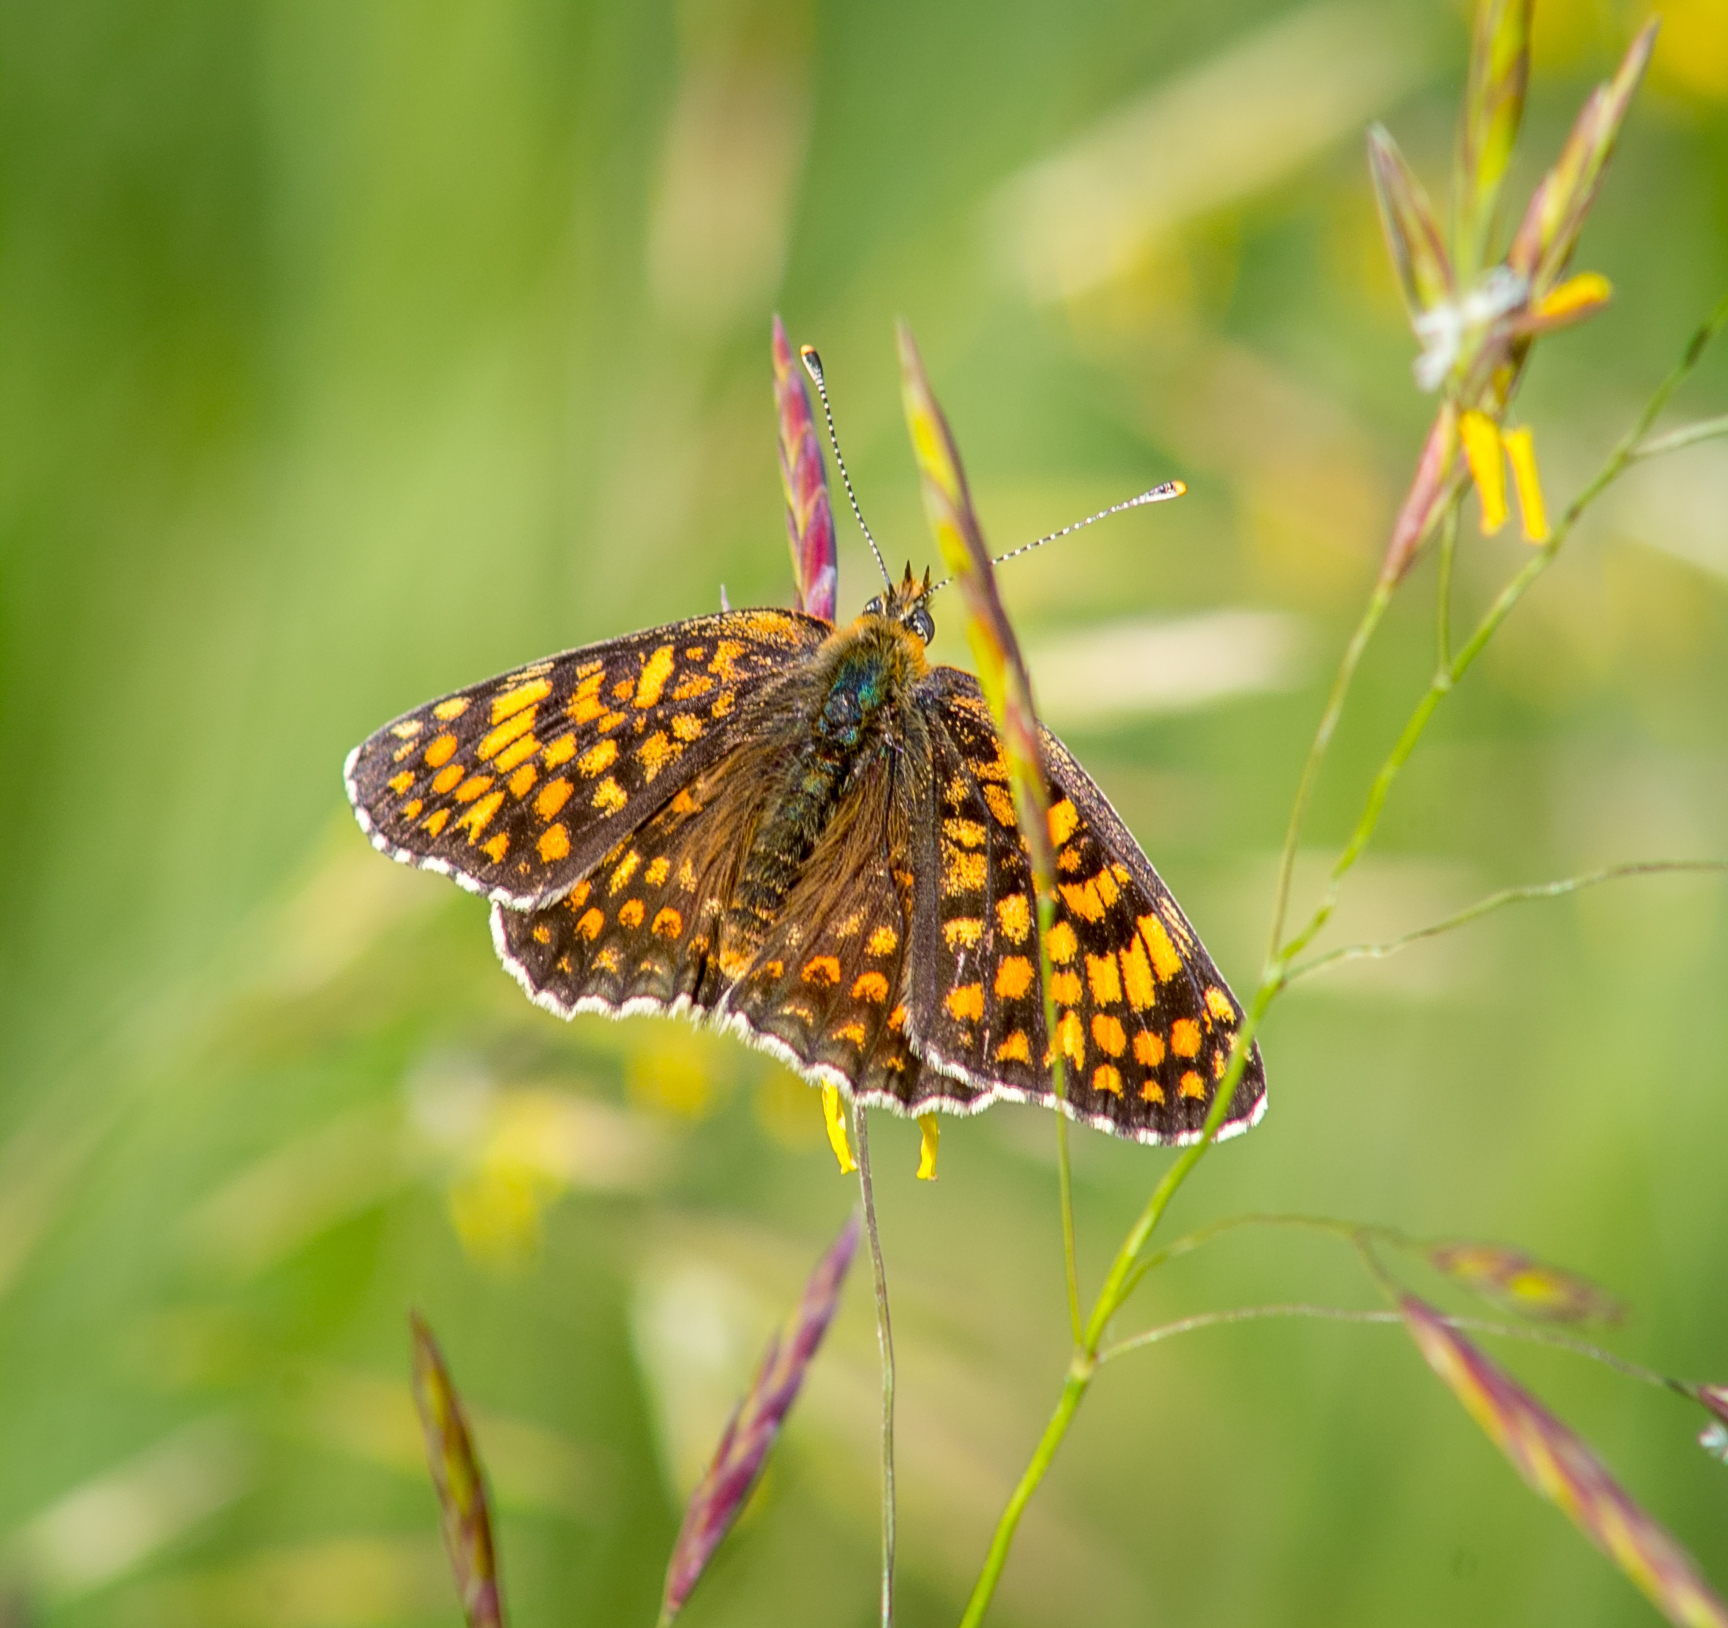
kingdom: Animalia
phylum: Arthropoda
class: Insecta
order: Lepidoptera
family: Nymphalidae
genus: Melitaea
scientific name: Melitaea phoebe
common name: Knapweed fritillary
